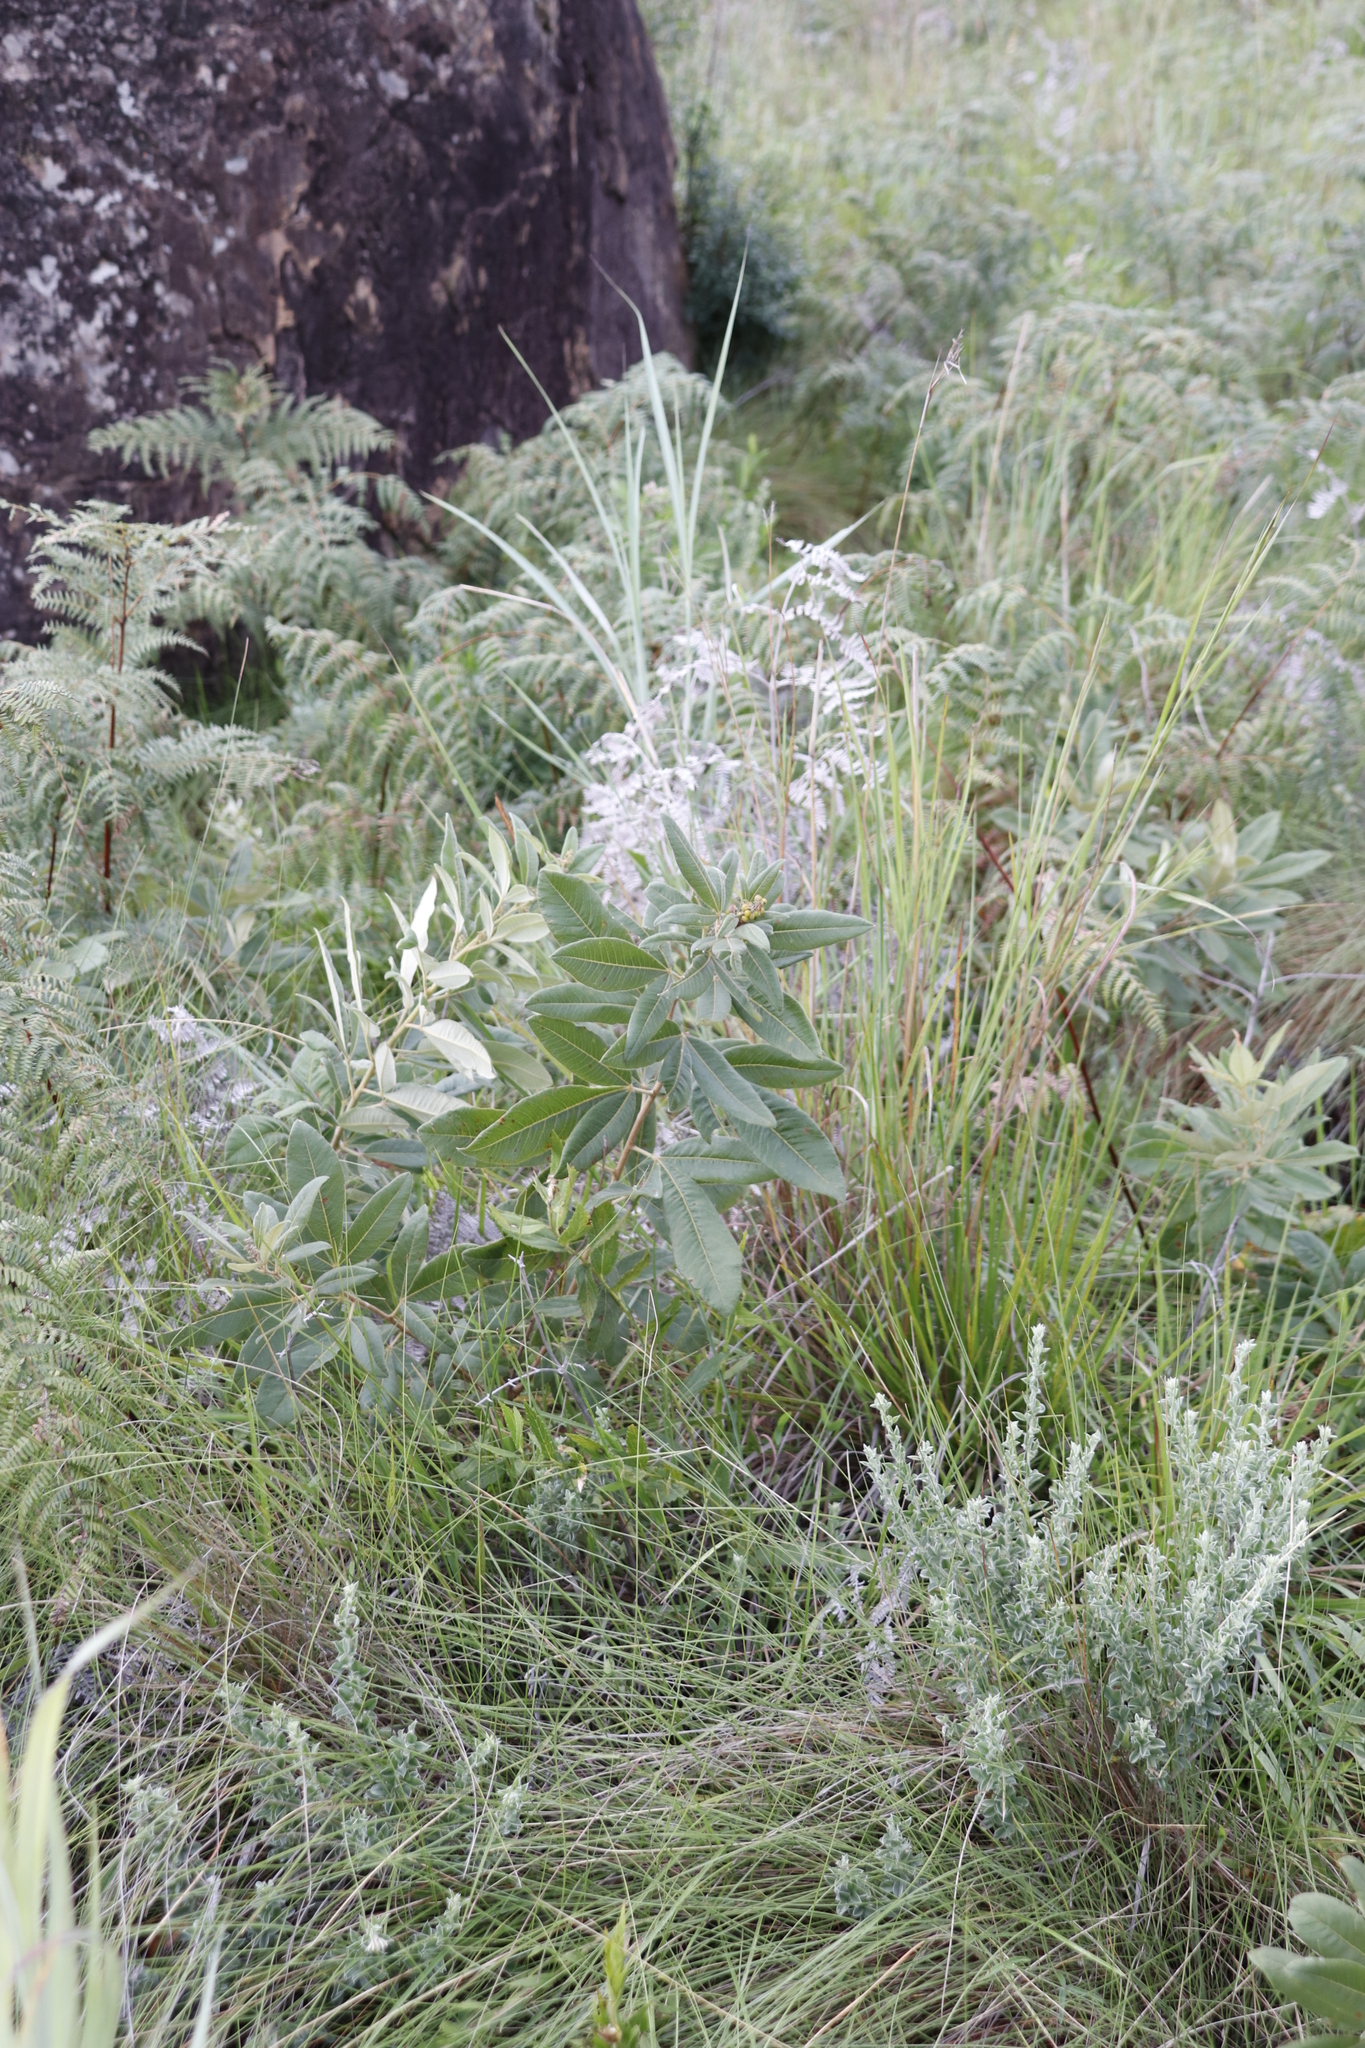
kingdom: Plantae
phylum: Tracheophyta
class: Magnoliopsida
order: Sapindales
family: Anacardiaceae
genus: Searsia
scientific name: Searsia discolor
